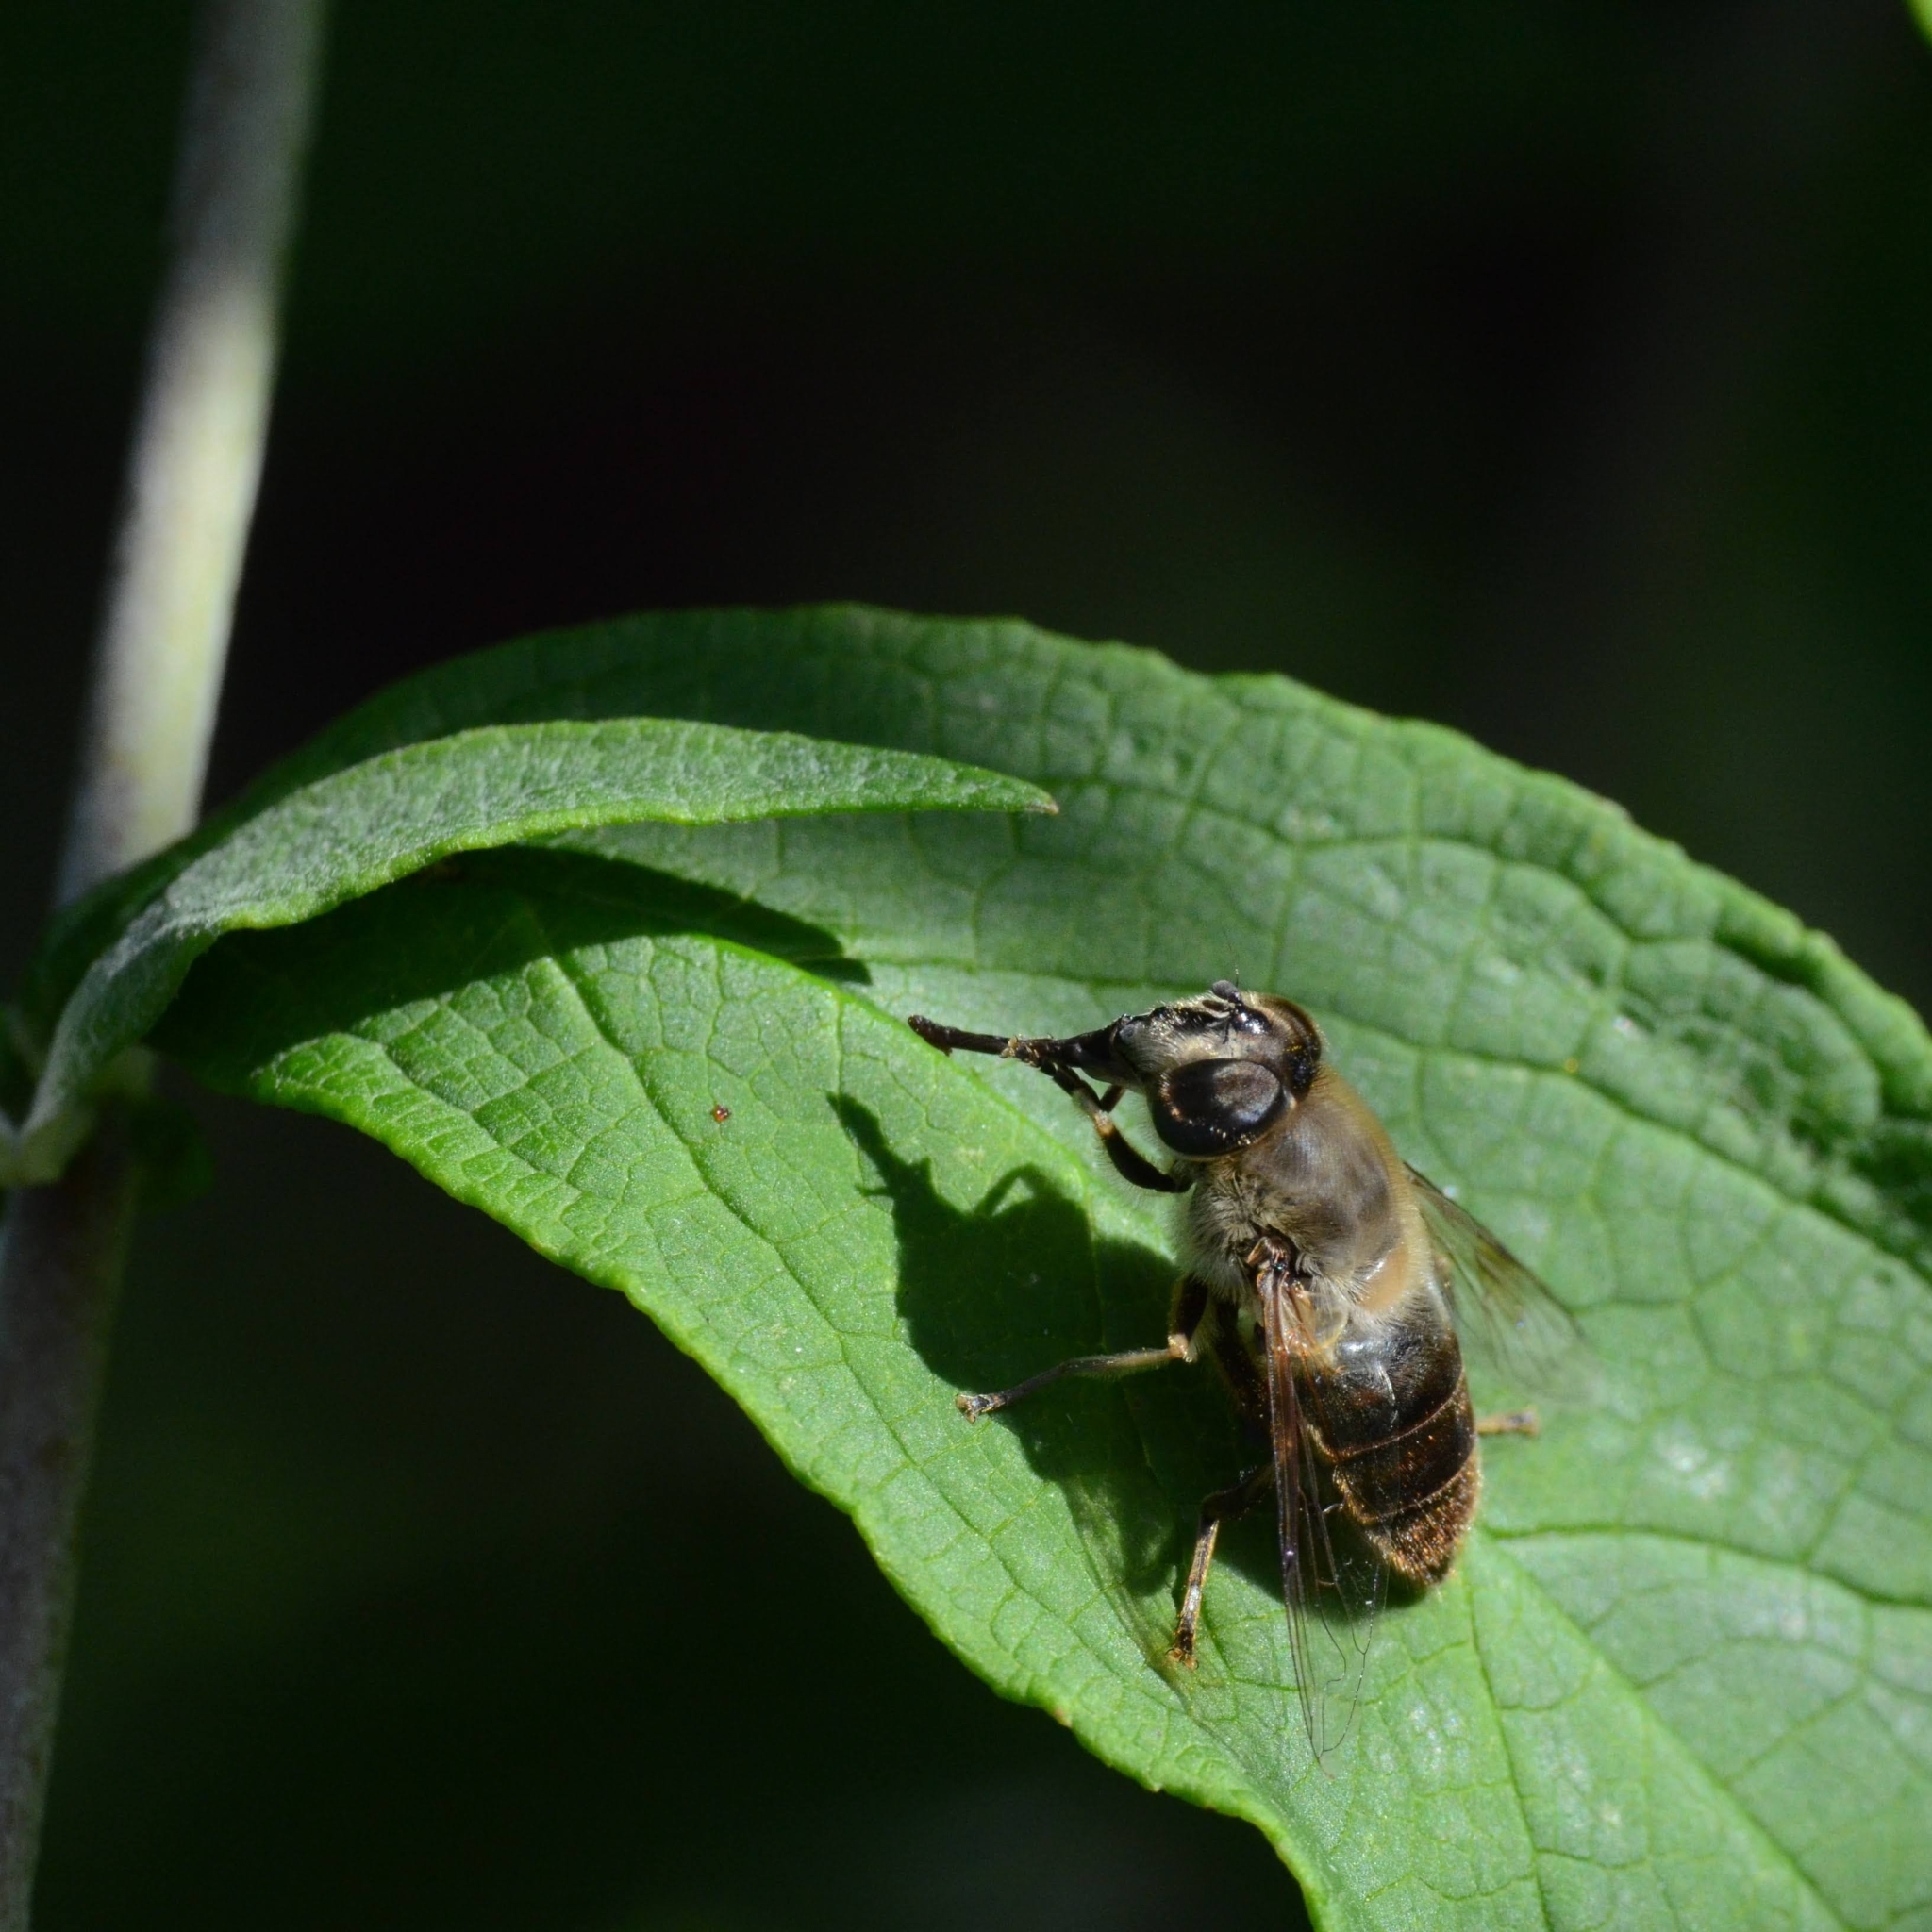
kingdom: Animalia
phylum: Arthropoda
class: Insecta
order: Diptera
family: Syrphidae
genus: Eristalis
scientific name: Eristalis tenax
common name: Drone fly
